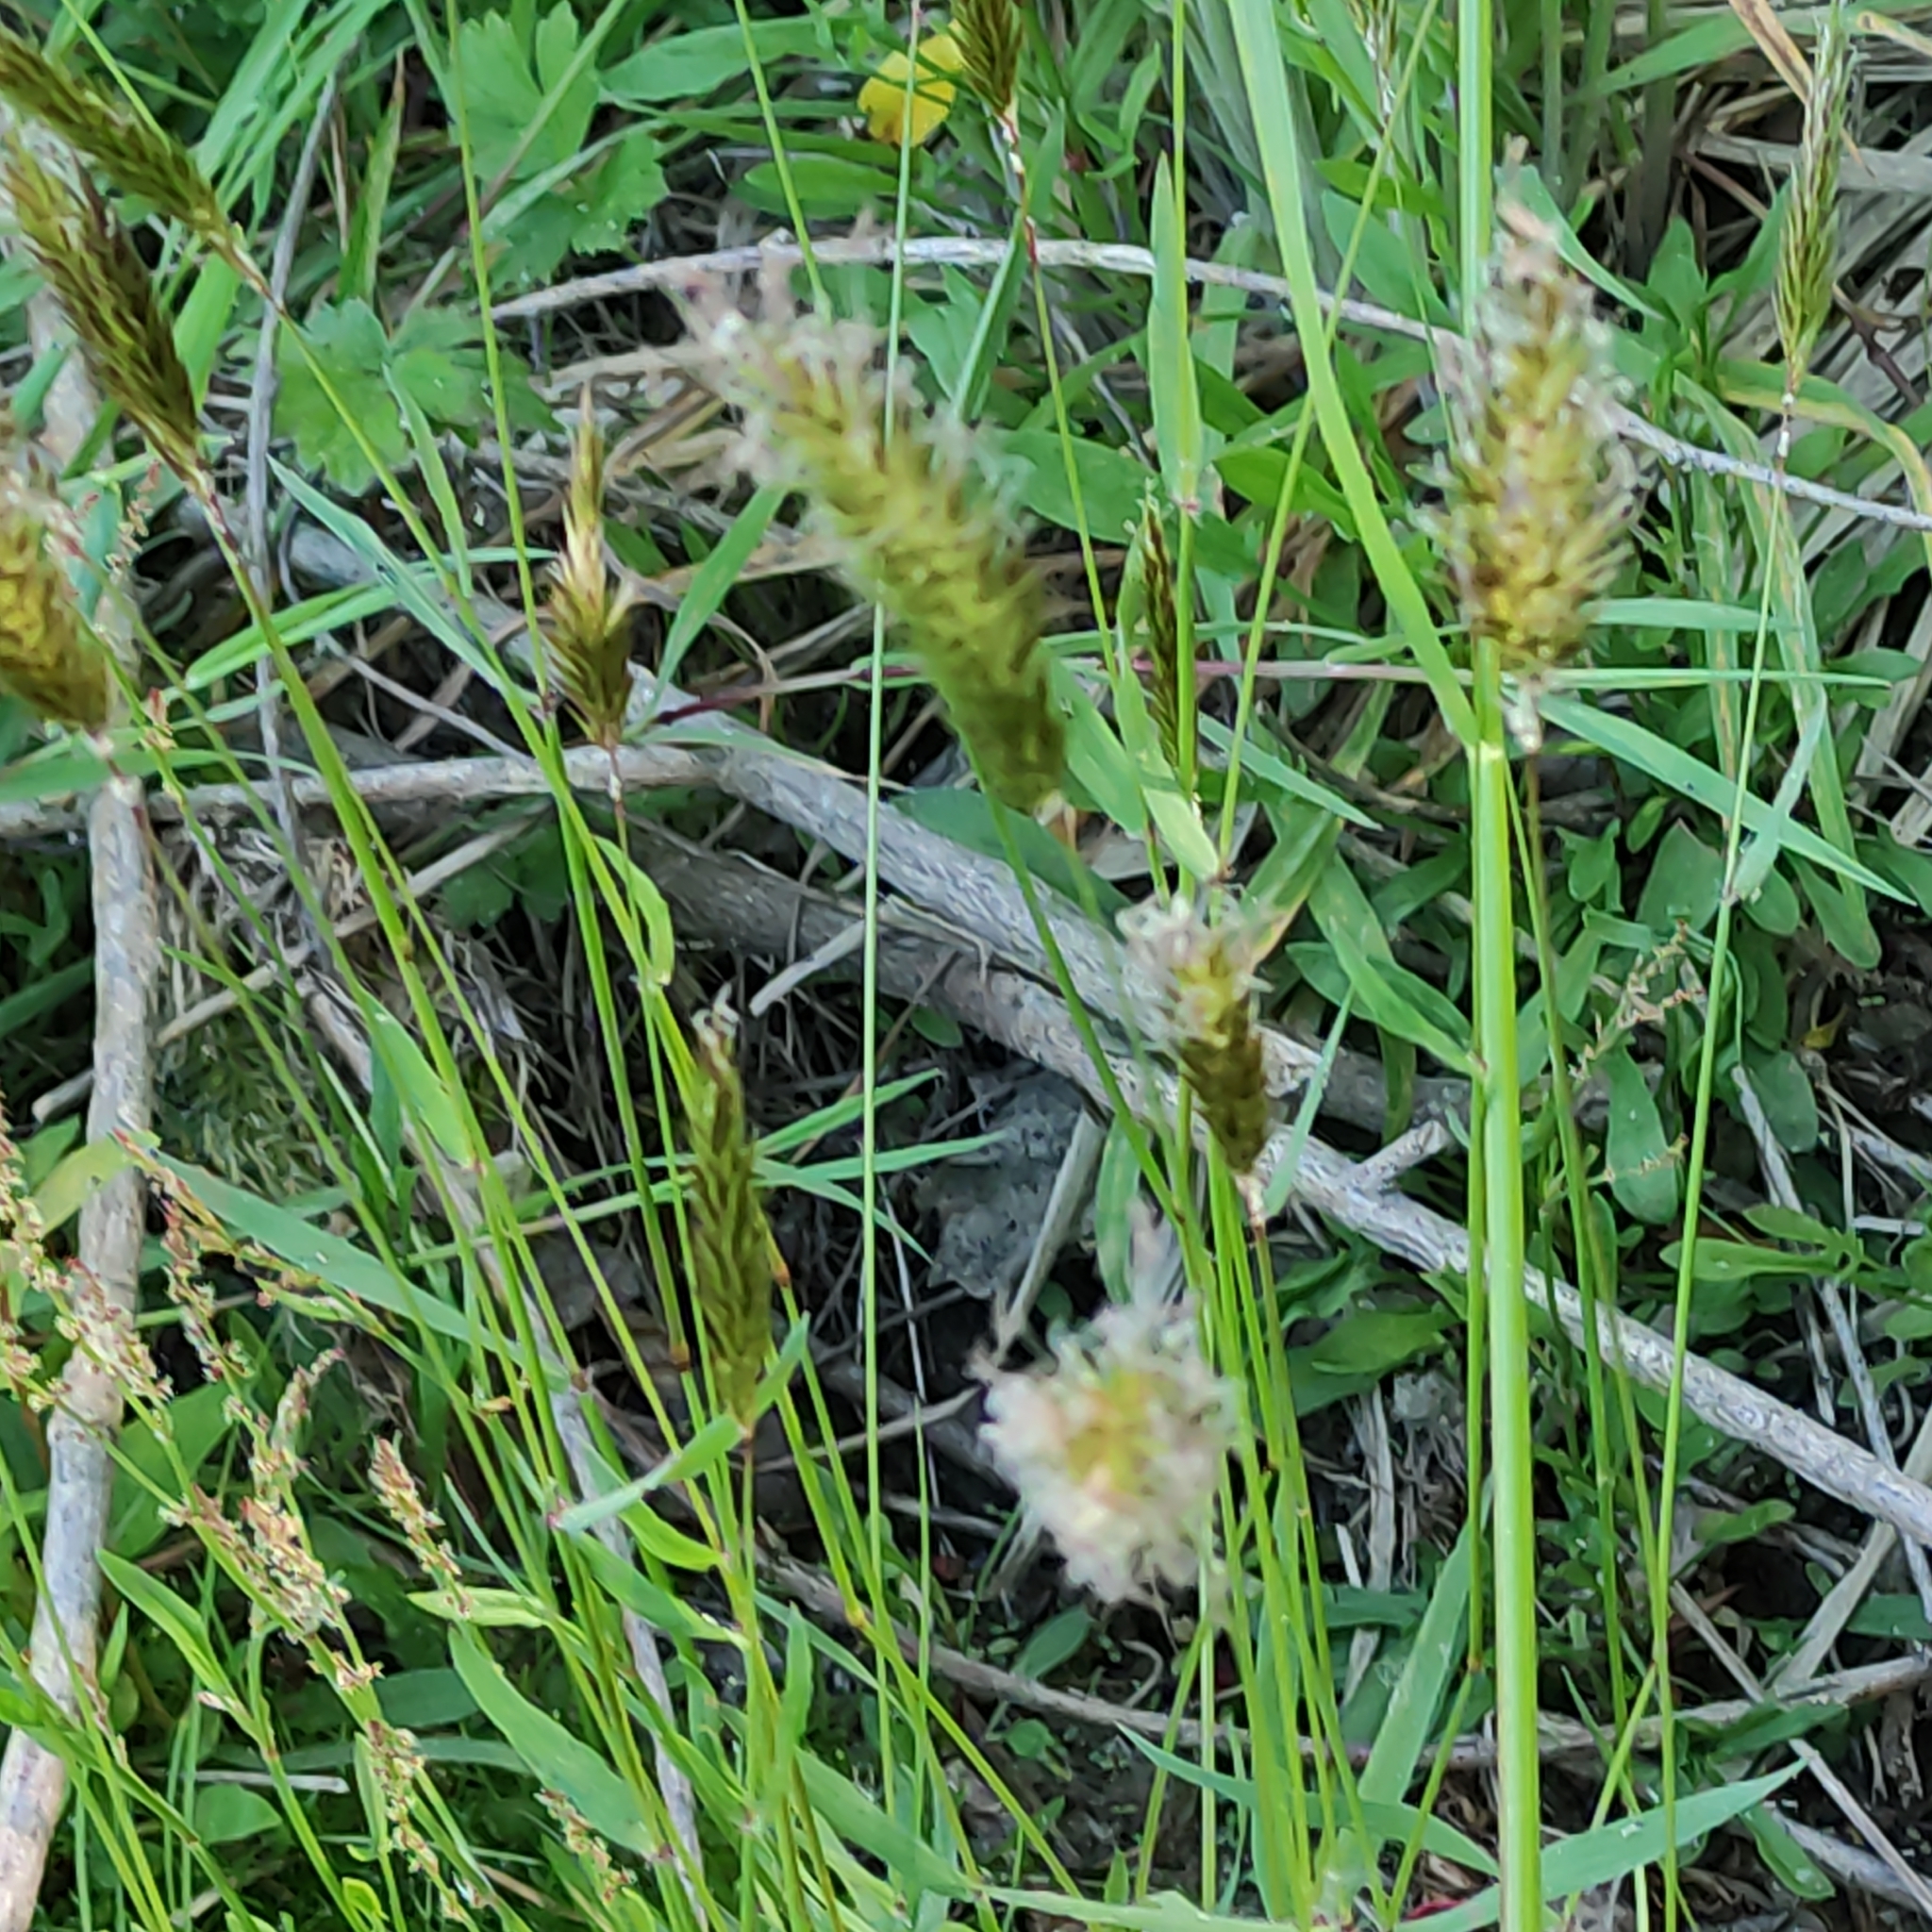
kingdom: Plantae
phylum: Tracheophyta
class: Liliopsida
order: Poales
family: Poaceae
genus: Anthoxanthum
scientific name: Anthoxanthum odoratum
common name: Sweet vernalgrass
